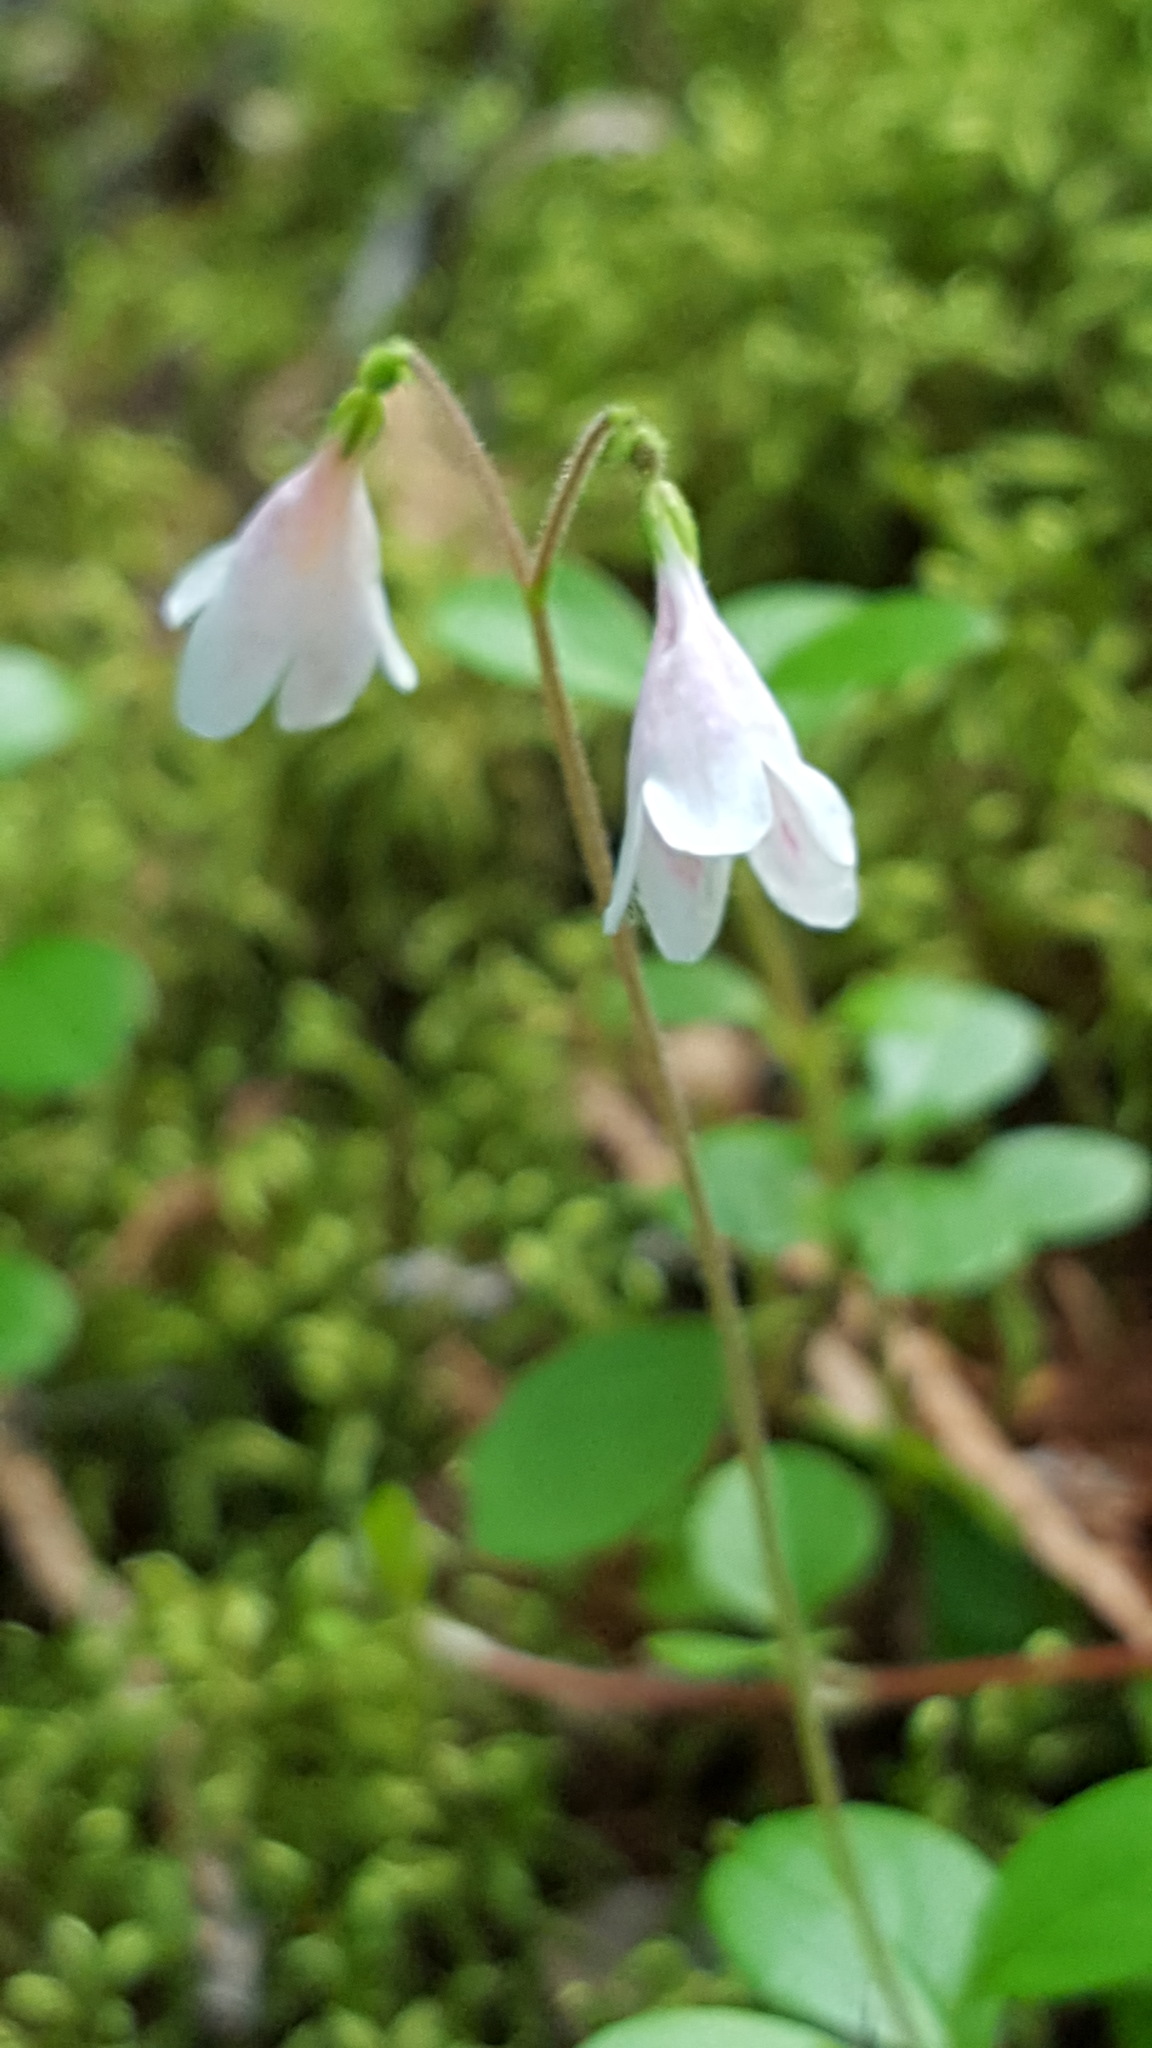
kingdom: Plantae
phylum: Tracheophyta
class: Magnoliopsida
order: Dipsacales
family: Caprifoliaceae
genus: Linnaea
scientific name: Linnaea borealis
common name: Twinflower
